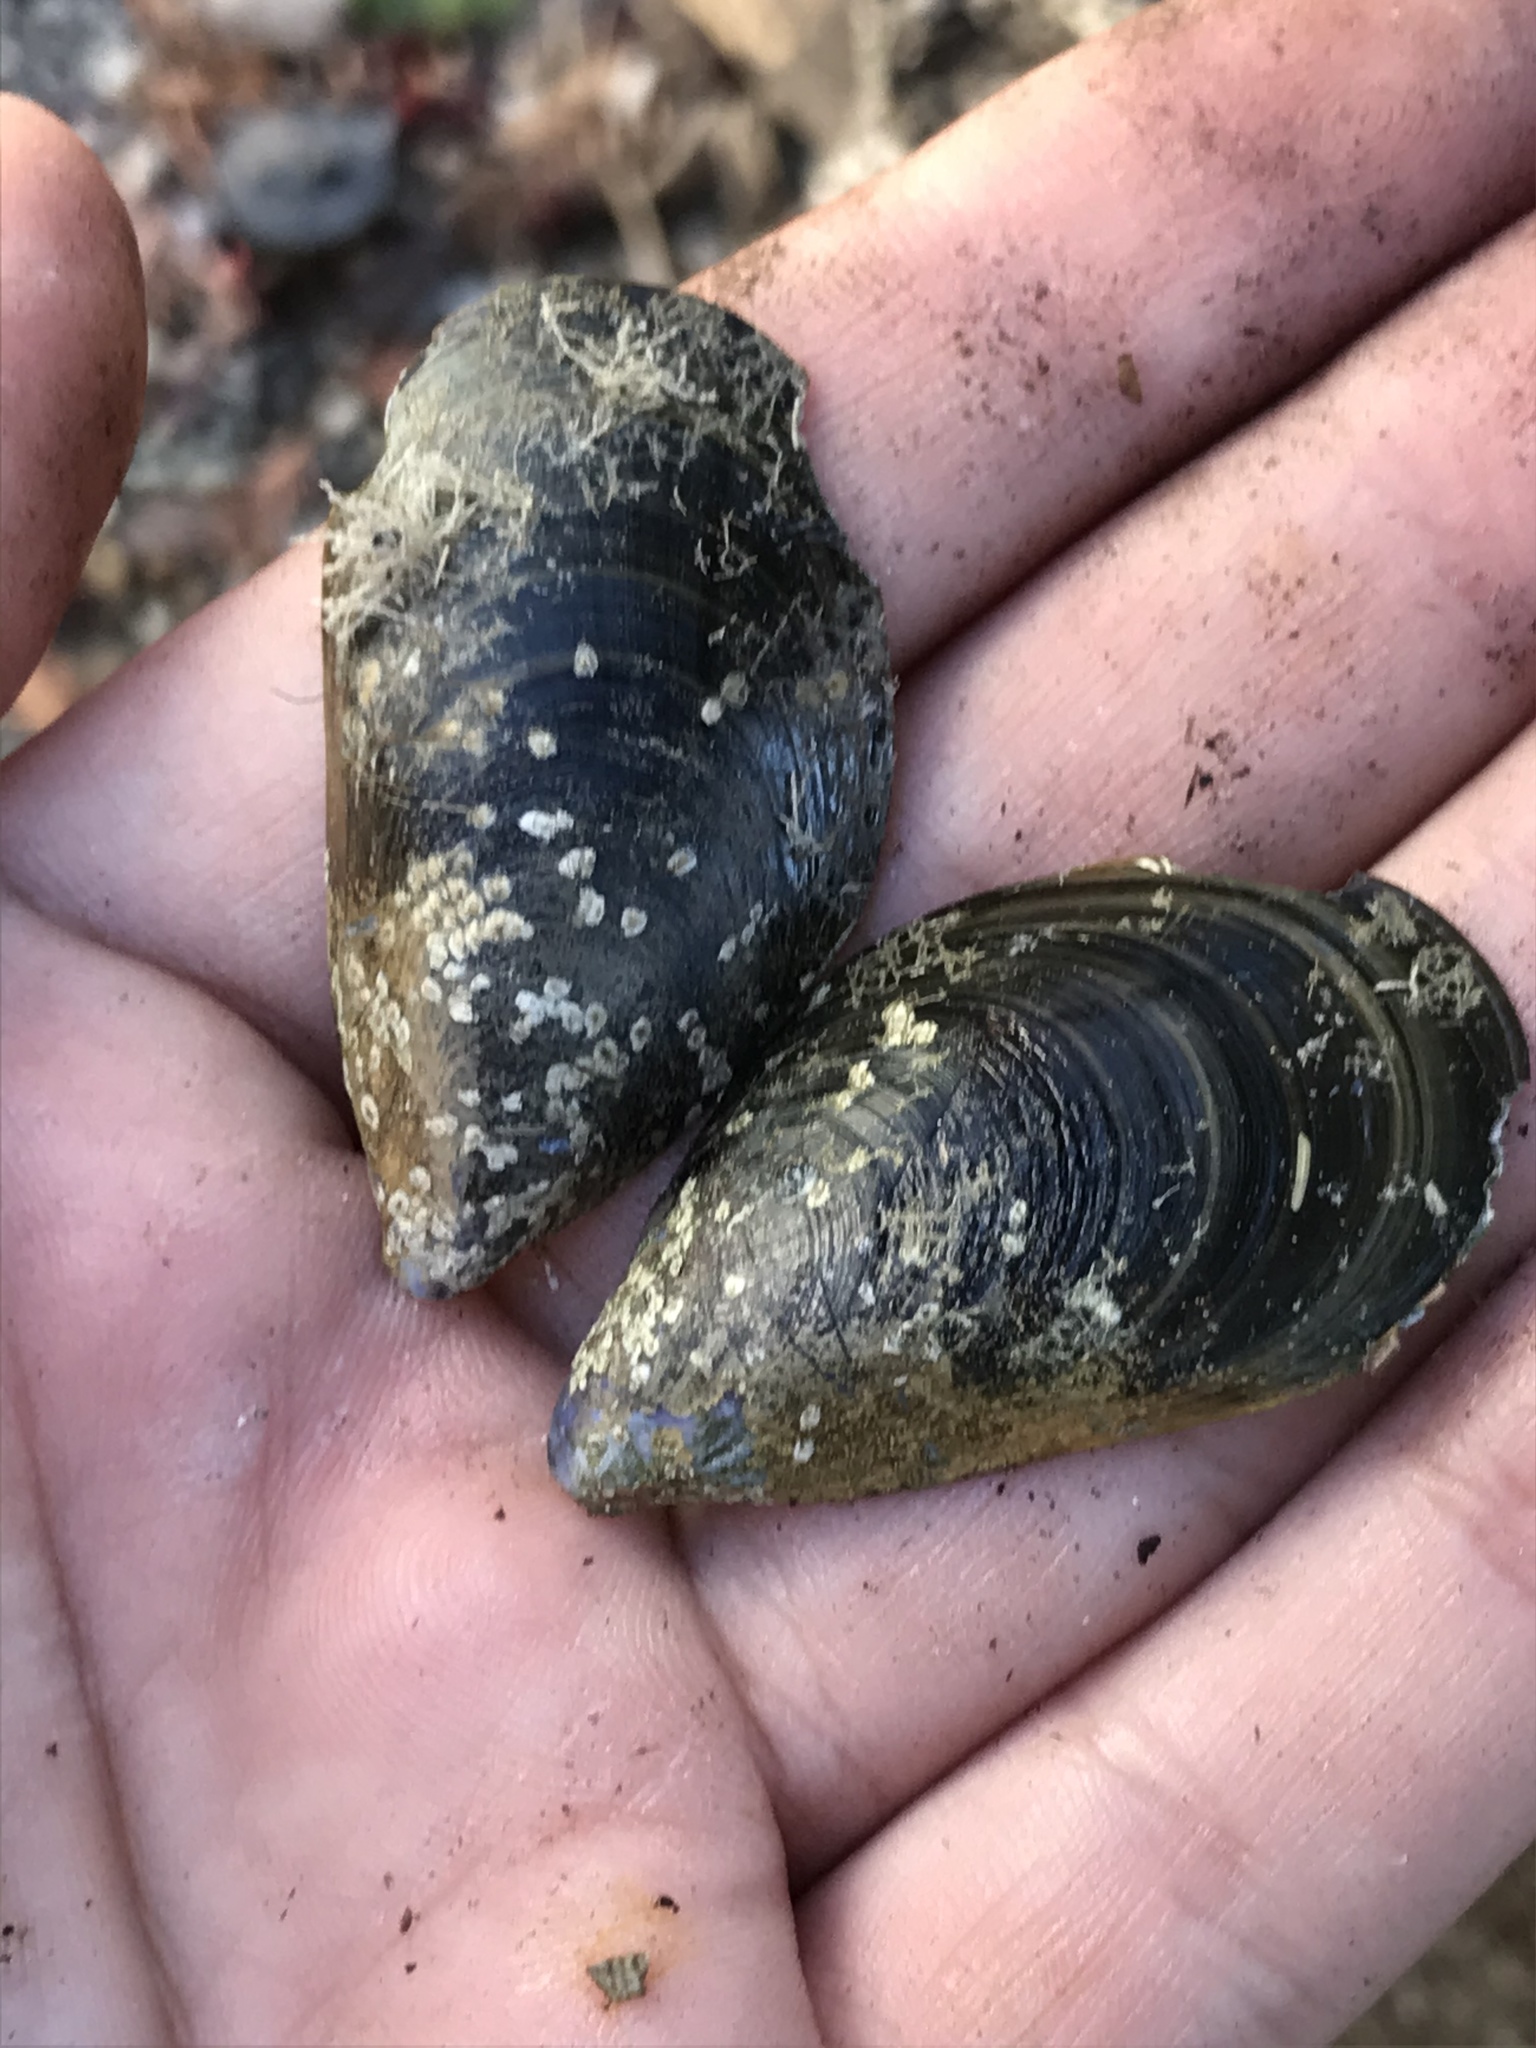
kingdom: Animalia
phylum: Mollusca
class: Bivalvia
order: Mytilida
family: Mytilidae
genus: Mytilus
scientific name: Mytilus
